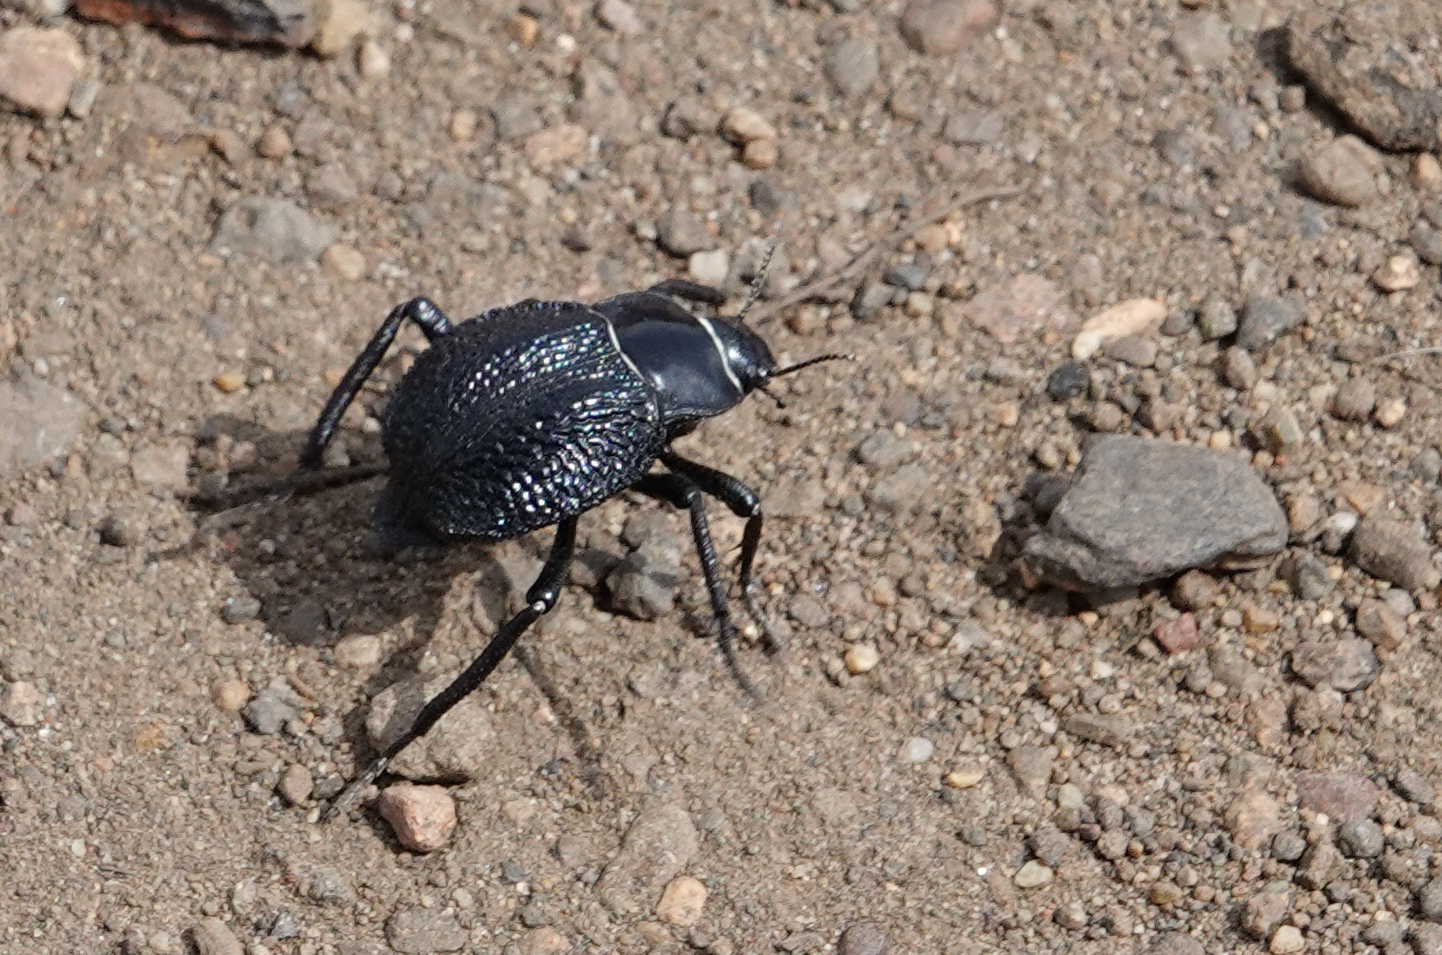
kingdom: Animalia
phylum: Arthropoda
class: Insecta
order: Coleoptera
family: Tenebrionidae
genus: Nyctelia
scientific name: Nyctelia
